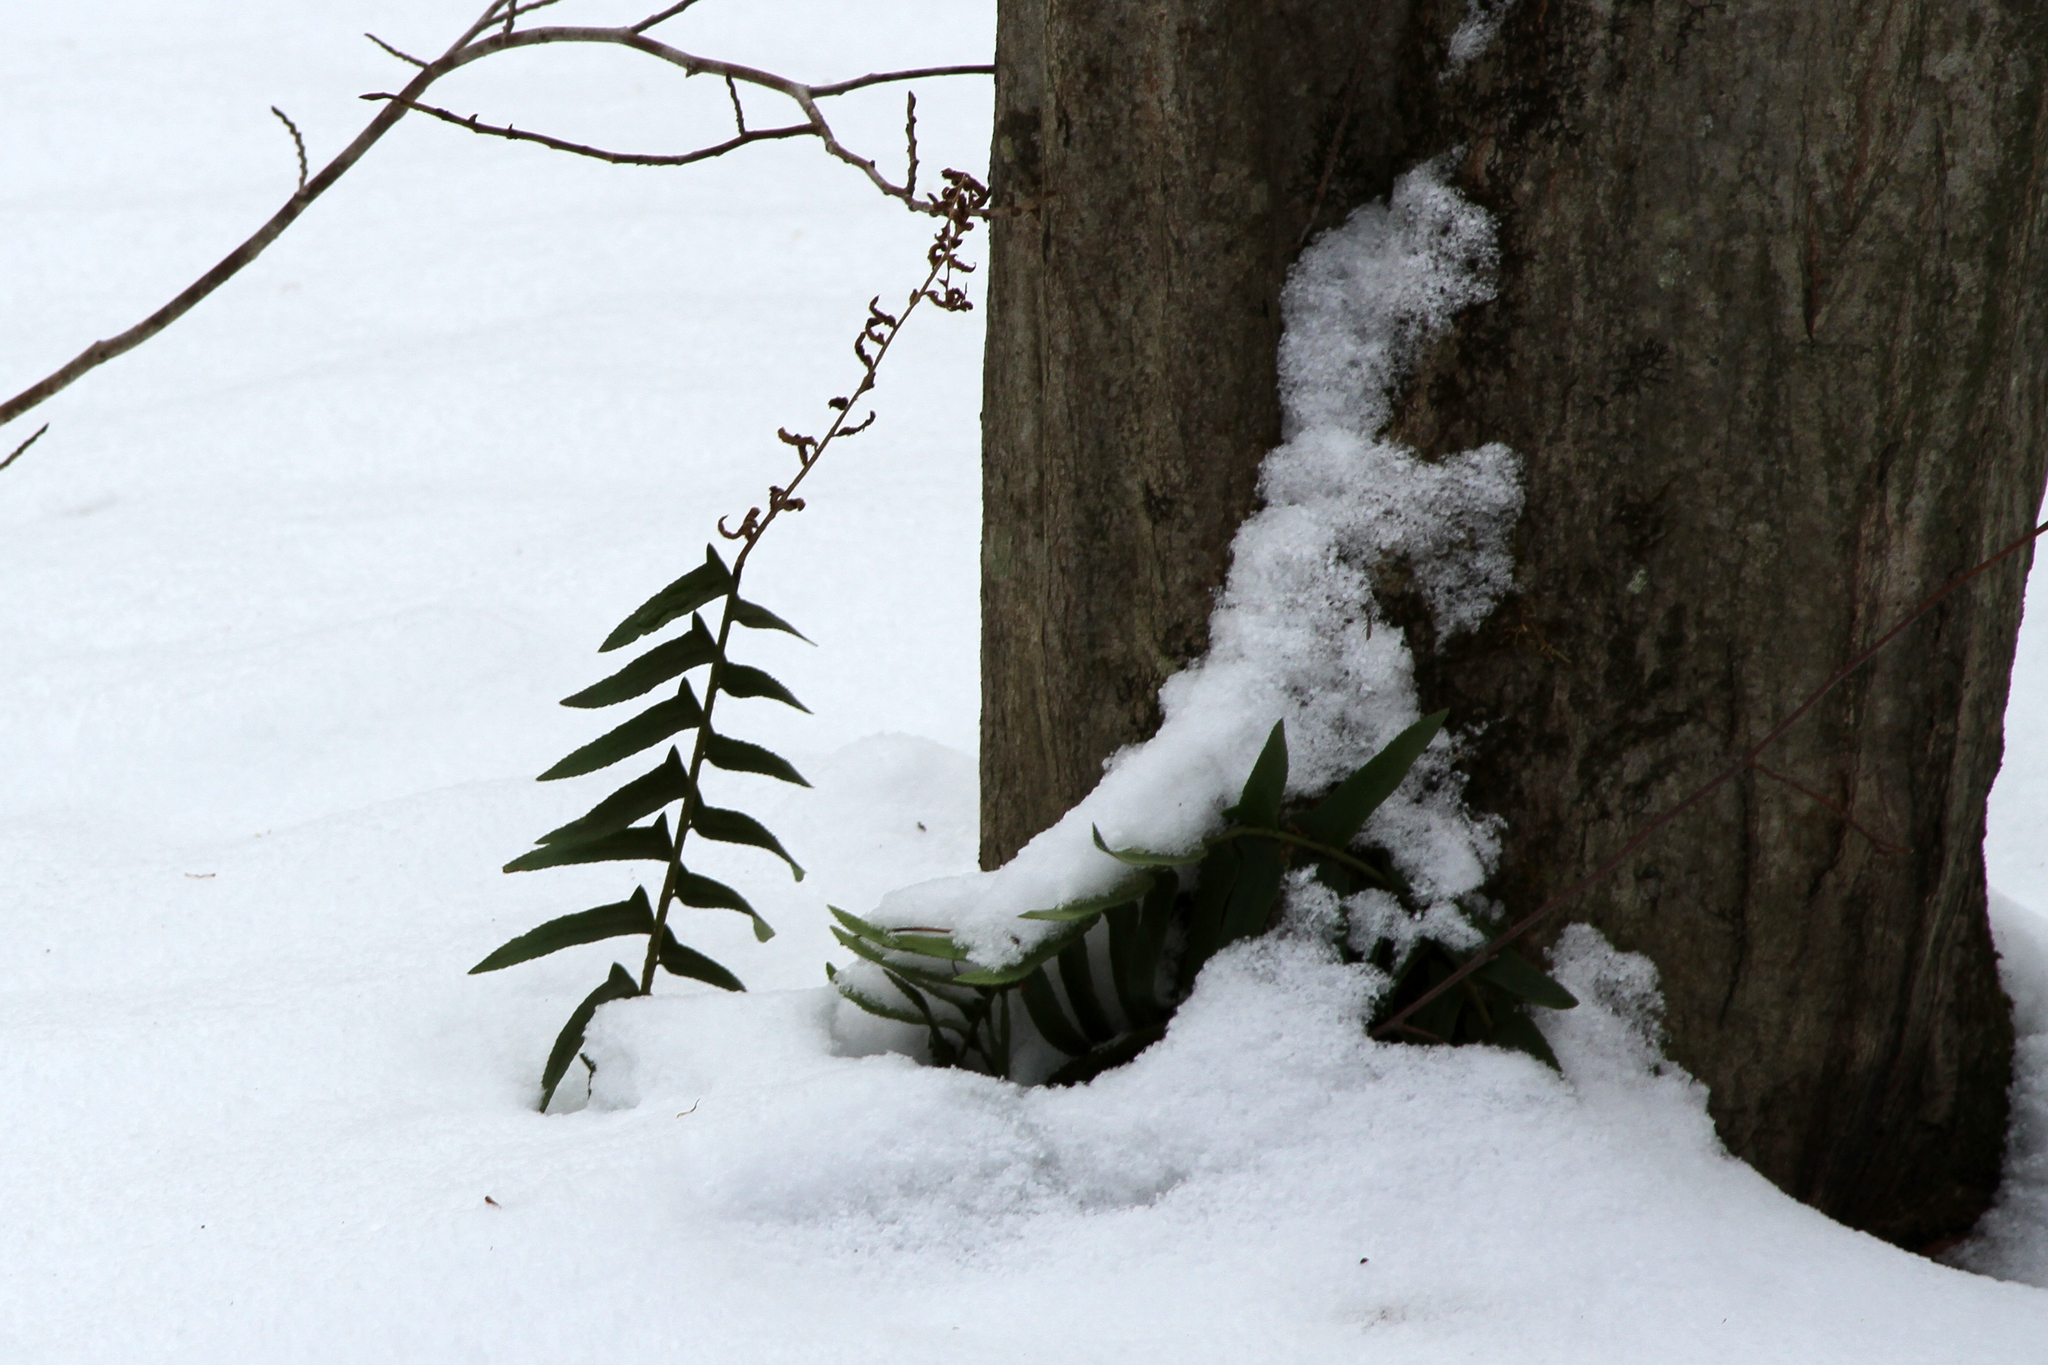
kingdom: Plantae
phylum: Tracheophyta
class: Polypodiopsida
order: Polypodiales
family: Dryopteridaceae
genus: Polystichum
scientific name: Polystichum acrostichoides
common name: Christmas fern
